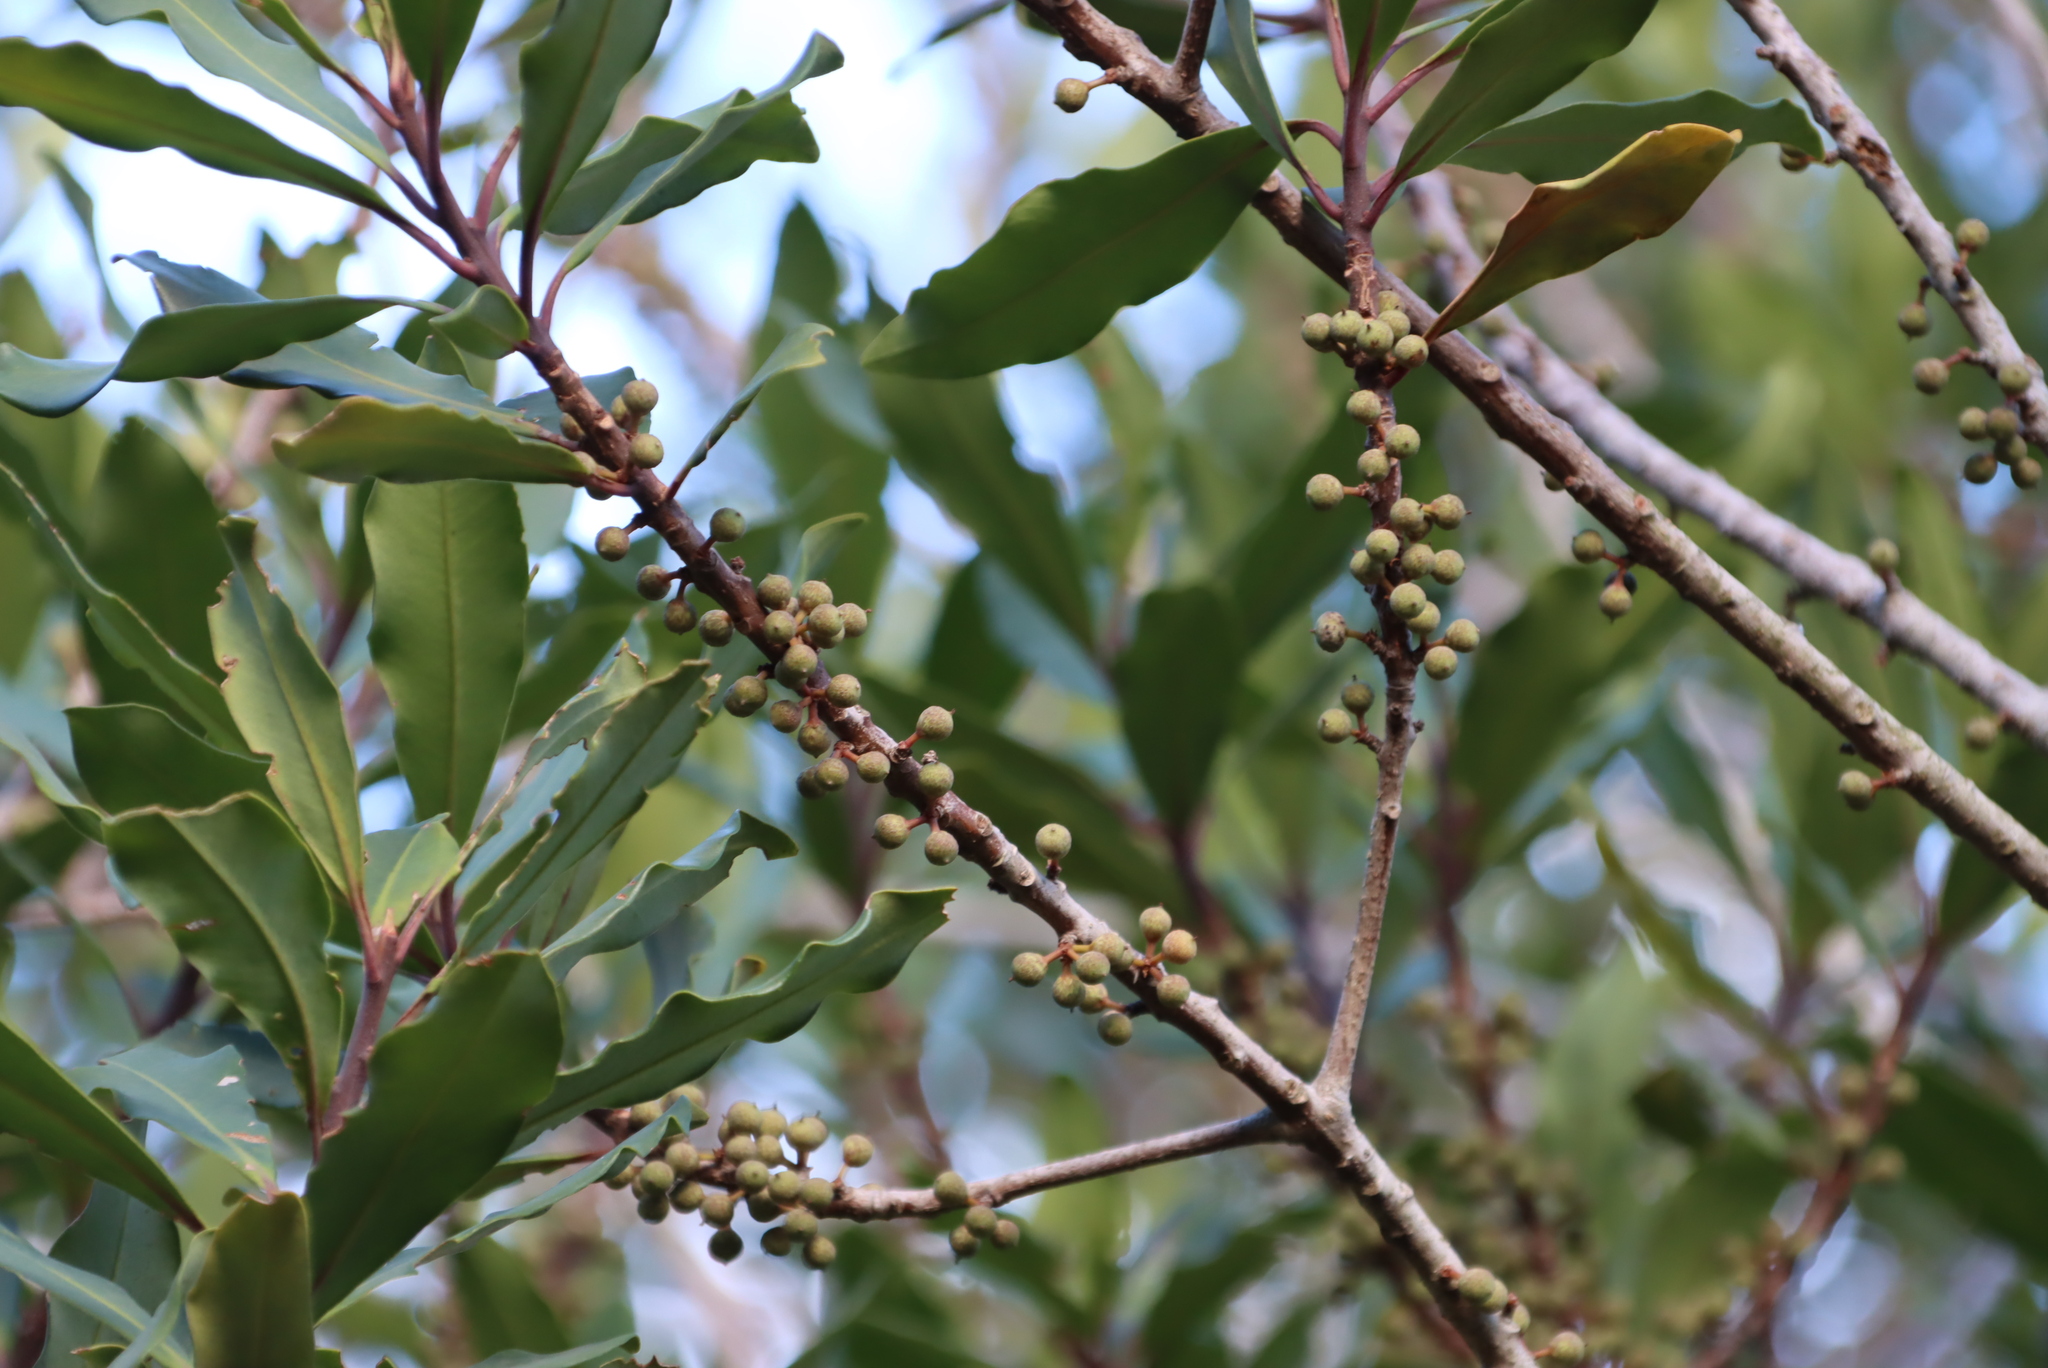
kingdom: Plantae
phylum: Tracheophyta
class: Magnoliopsida
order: Ericales
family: Primulaceae
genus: Myrsine
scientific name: Myrsine melanophloeos
